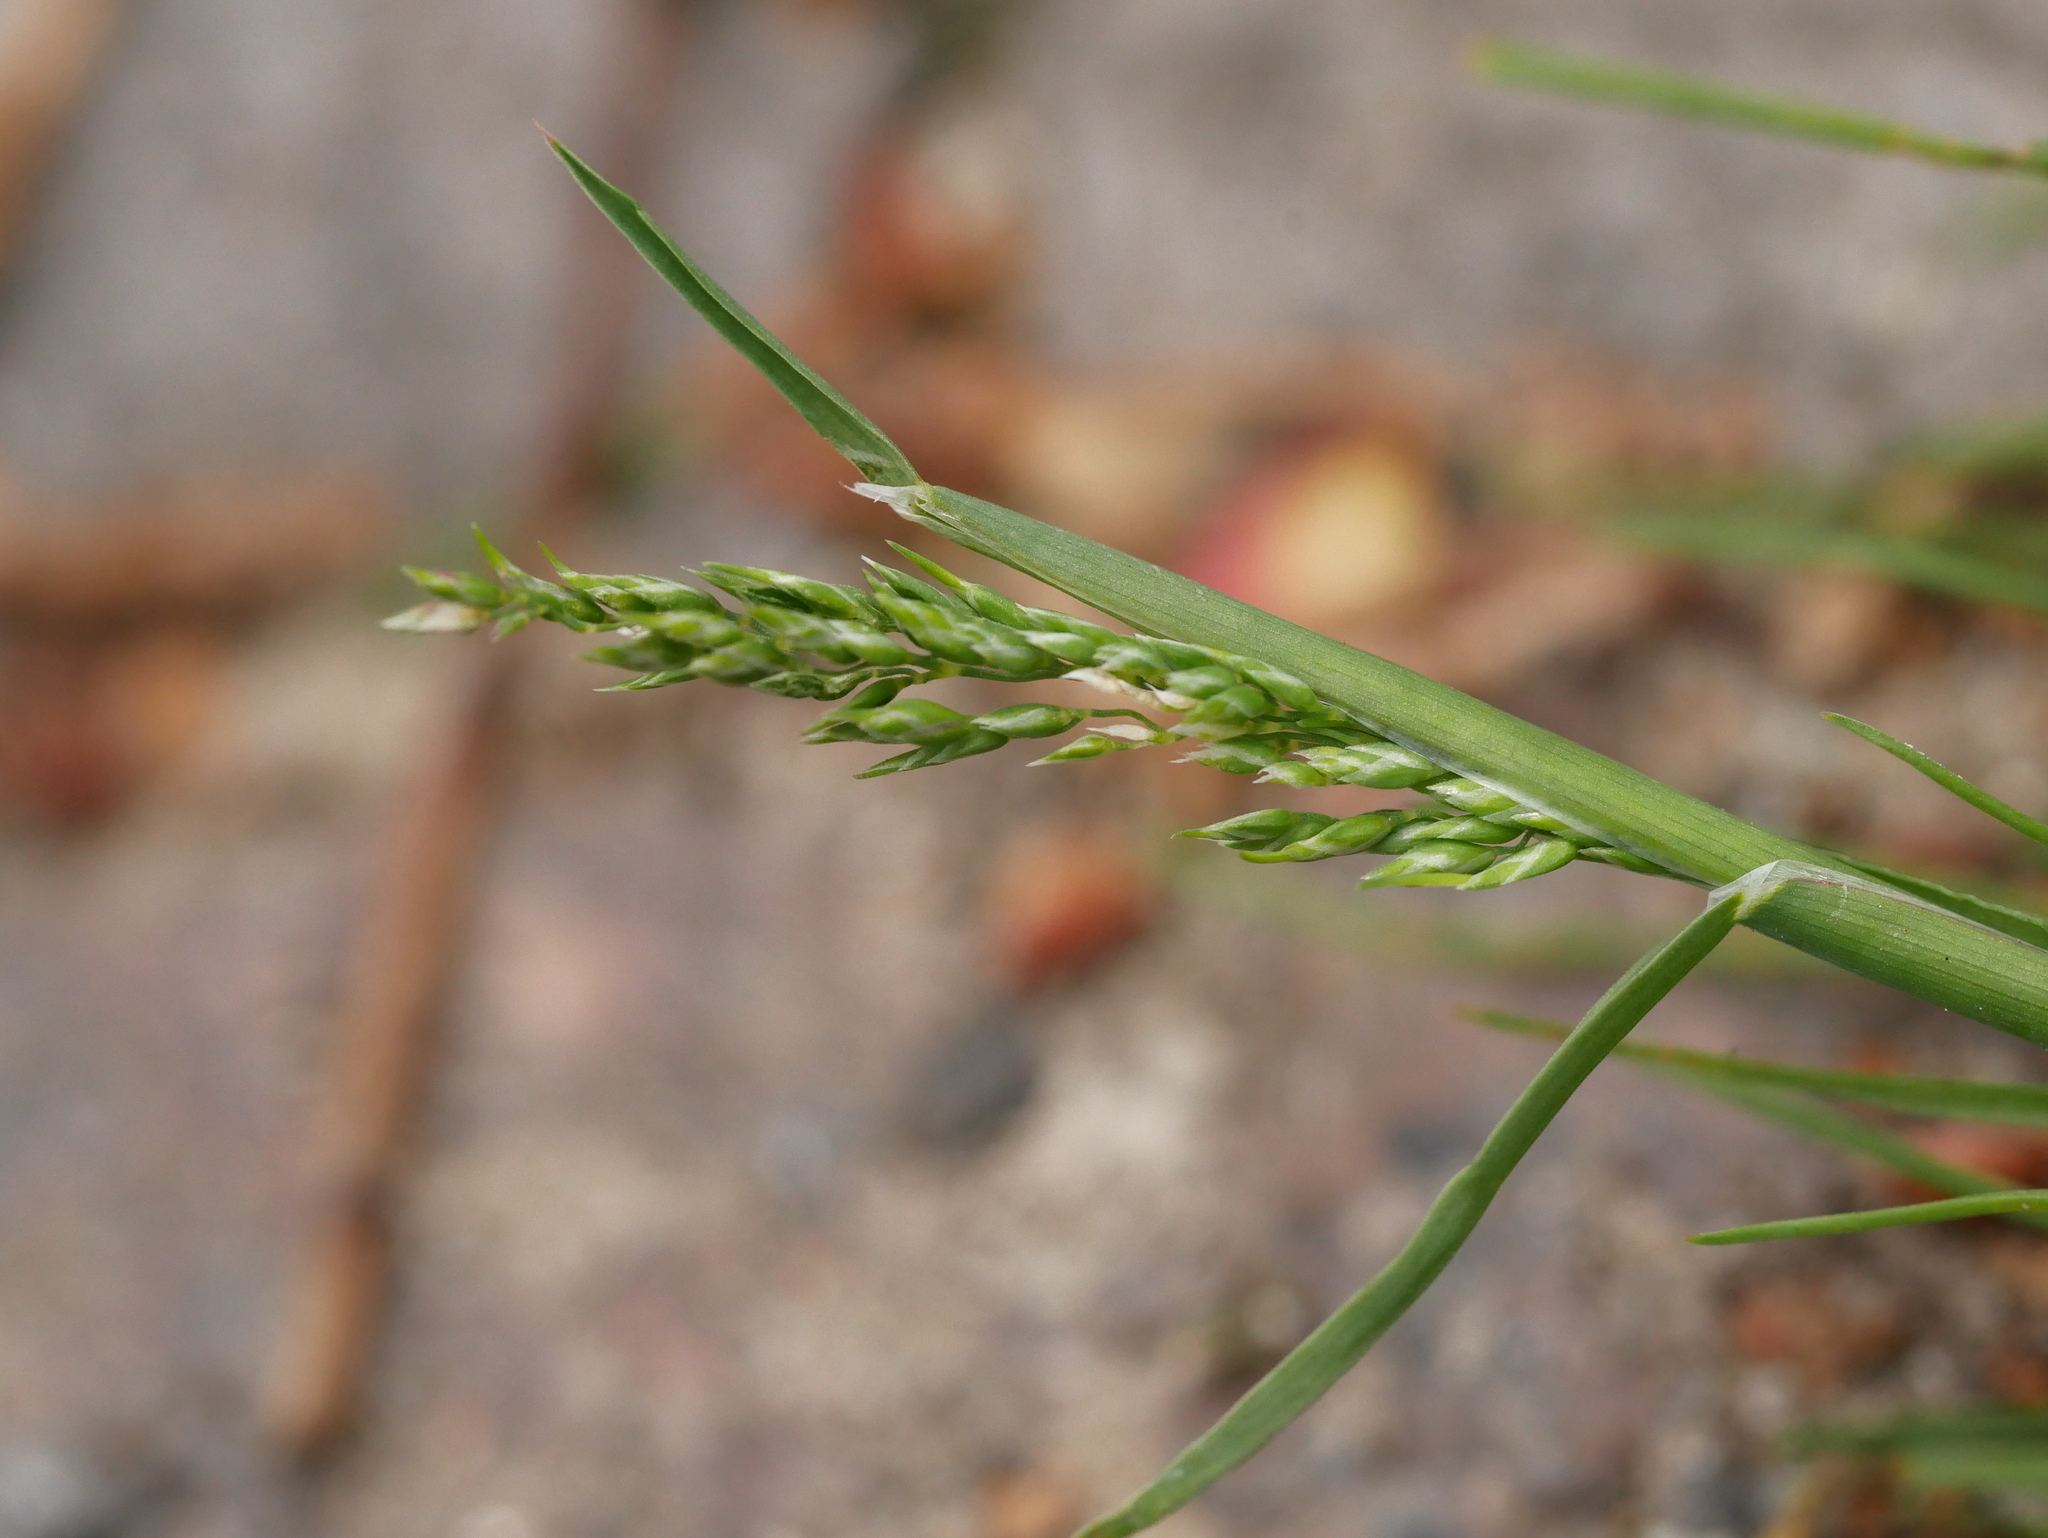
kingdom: Plantae
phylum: Tracheophyta
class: Liliopsida
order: Poales
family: Poaceae
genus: Poa
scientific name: Poa annua
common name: Annual bluegrass
